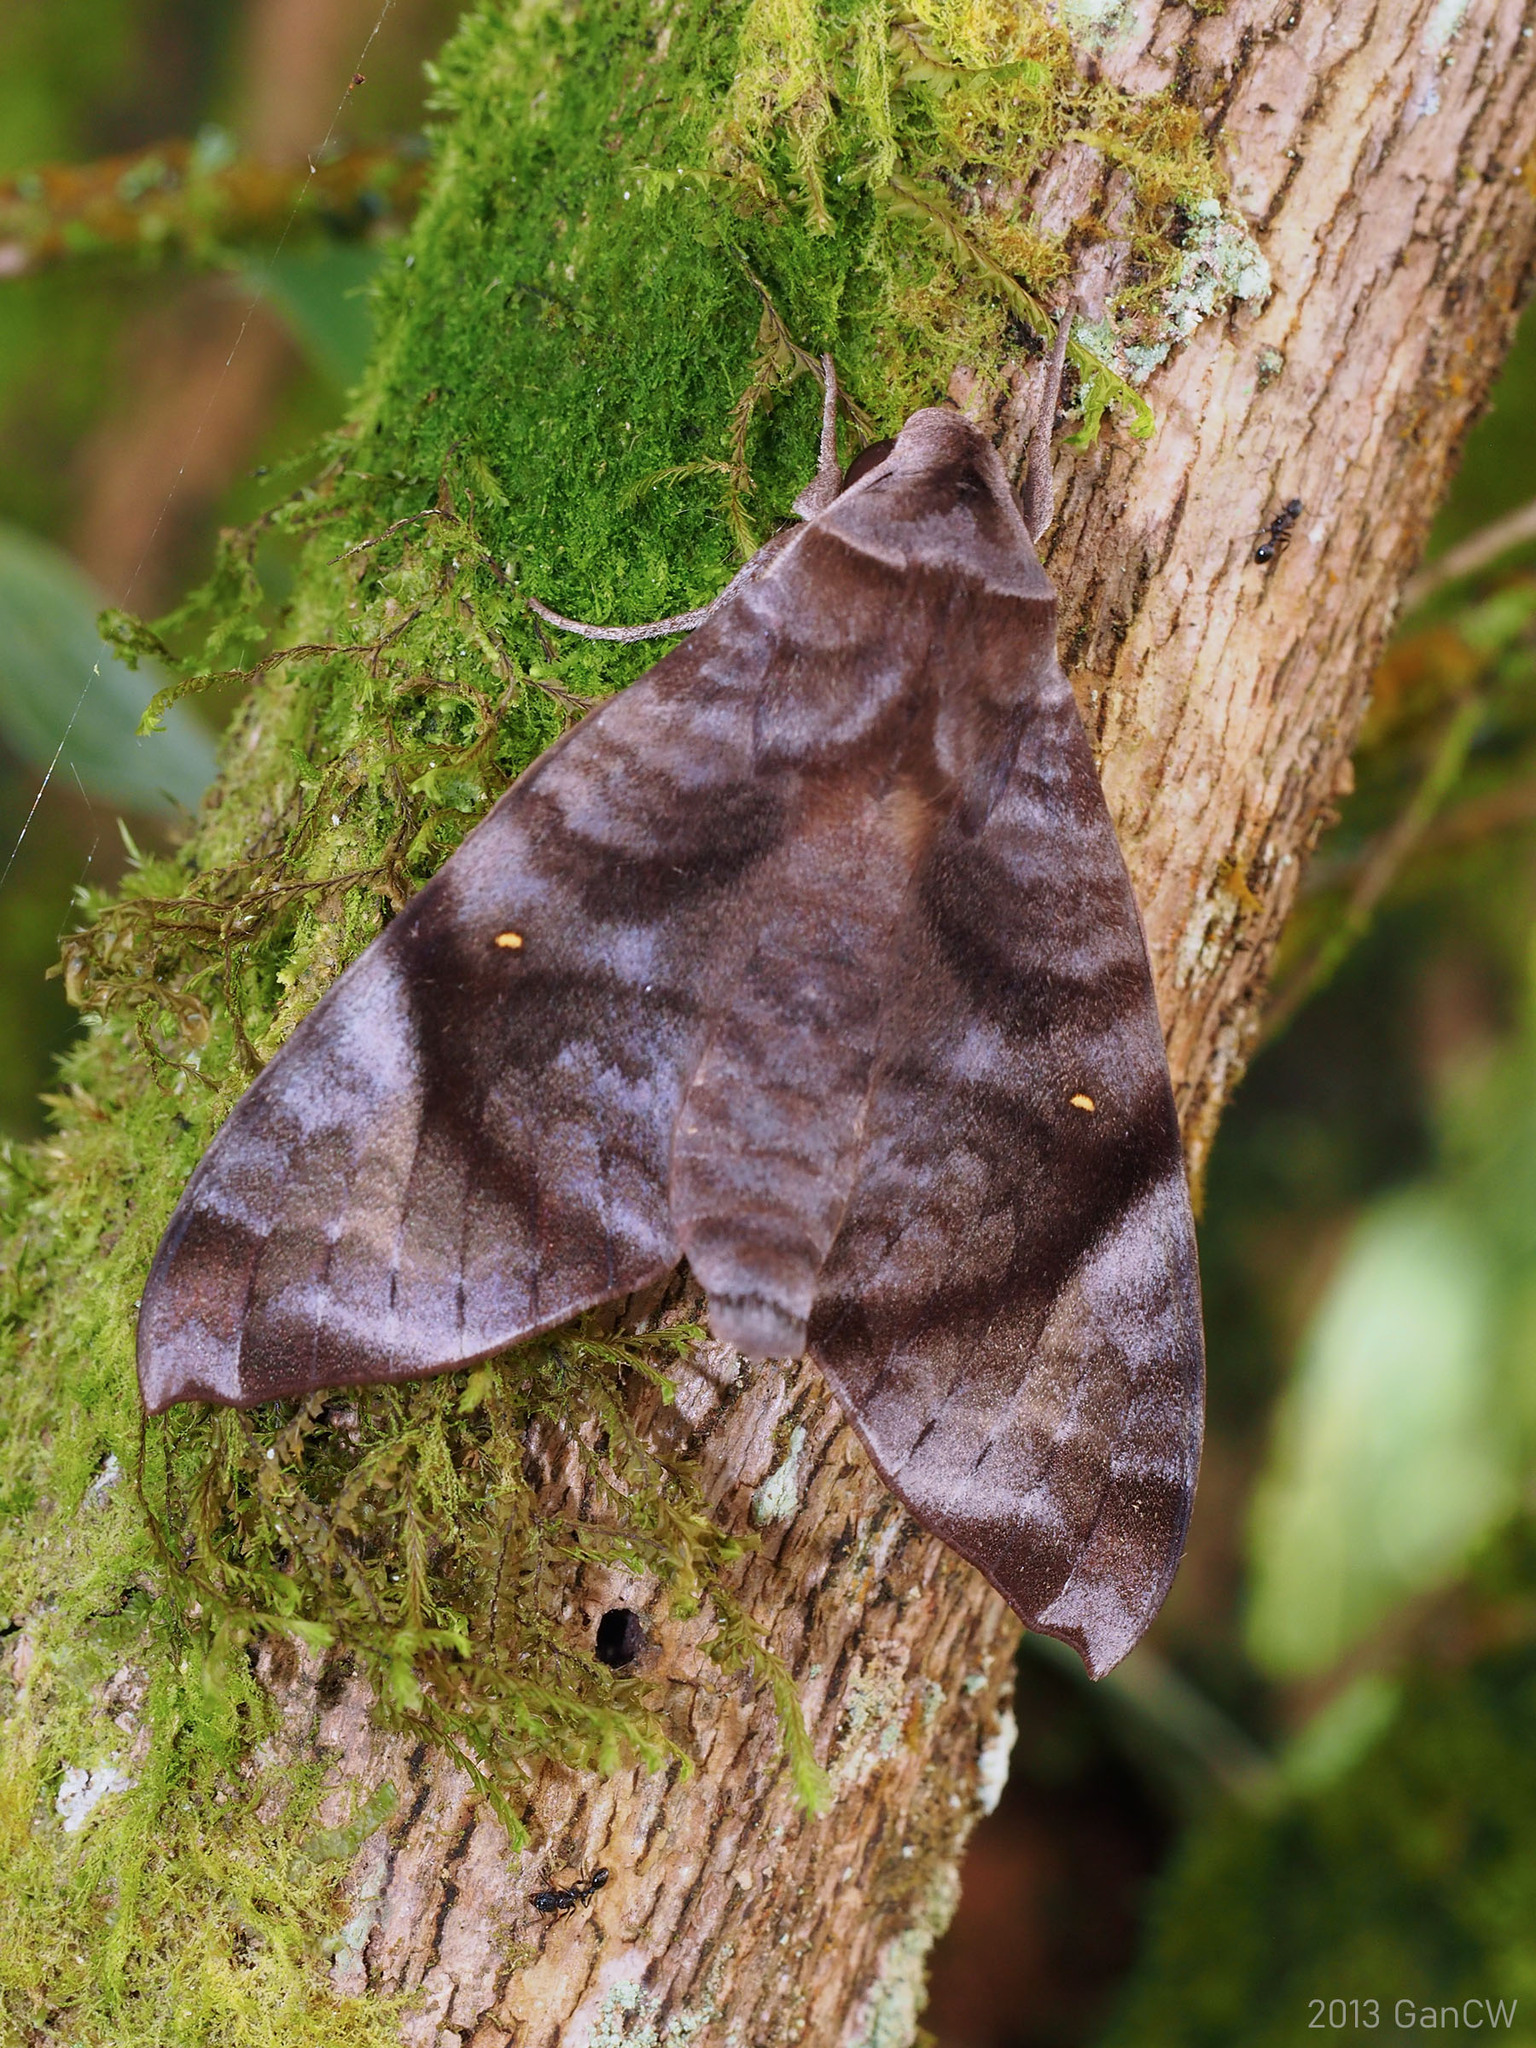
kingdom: Animalia
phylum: Arthropoda
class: Insecta
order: Lepidoptera
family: Sphingidae
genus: Acosmeryx
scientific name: Acosmeryx pseudonaga
